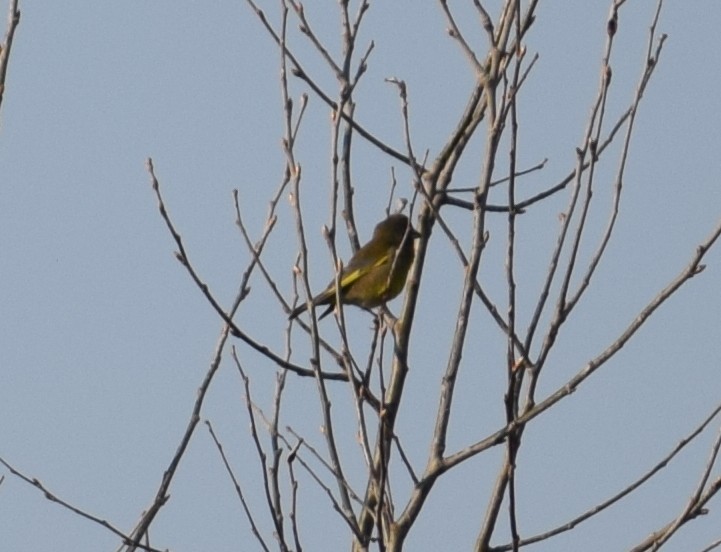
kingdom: Plantae
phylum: Tracheophyta
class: Liliopsida
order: Poales
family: Poaceae
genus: Chloris
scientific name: Chloris chloris
